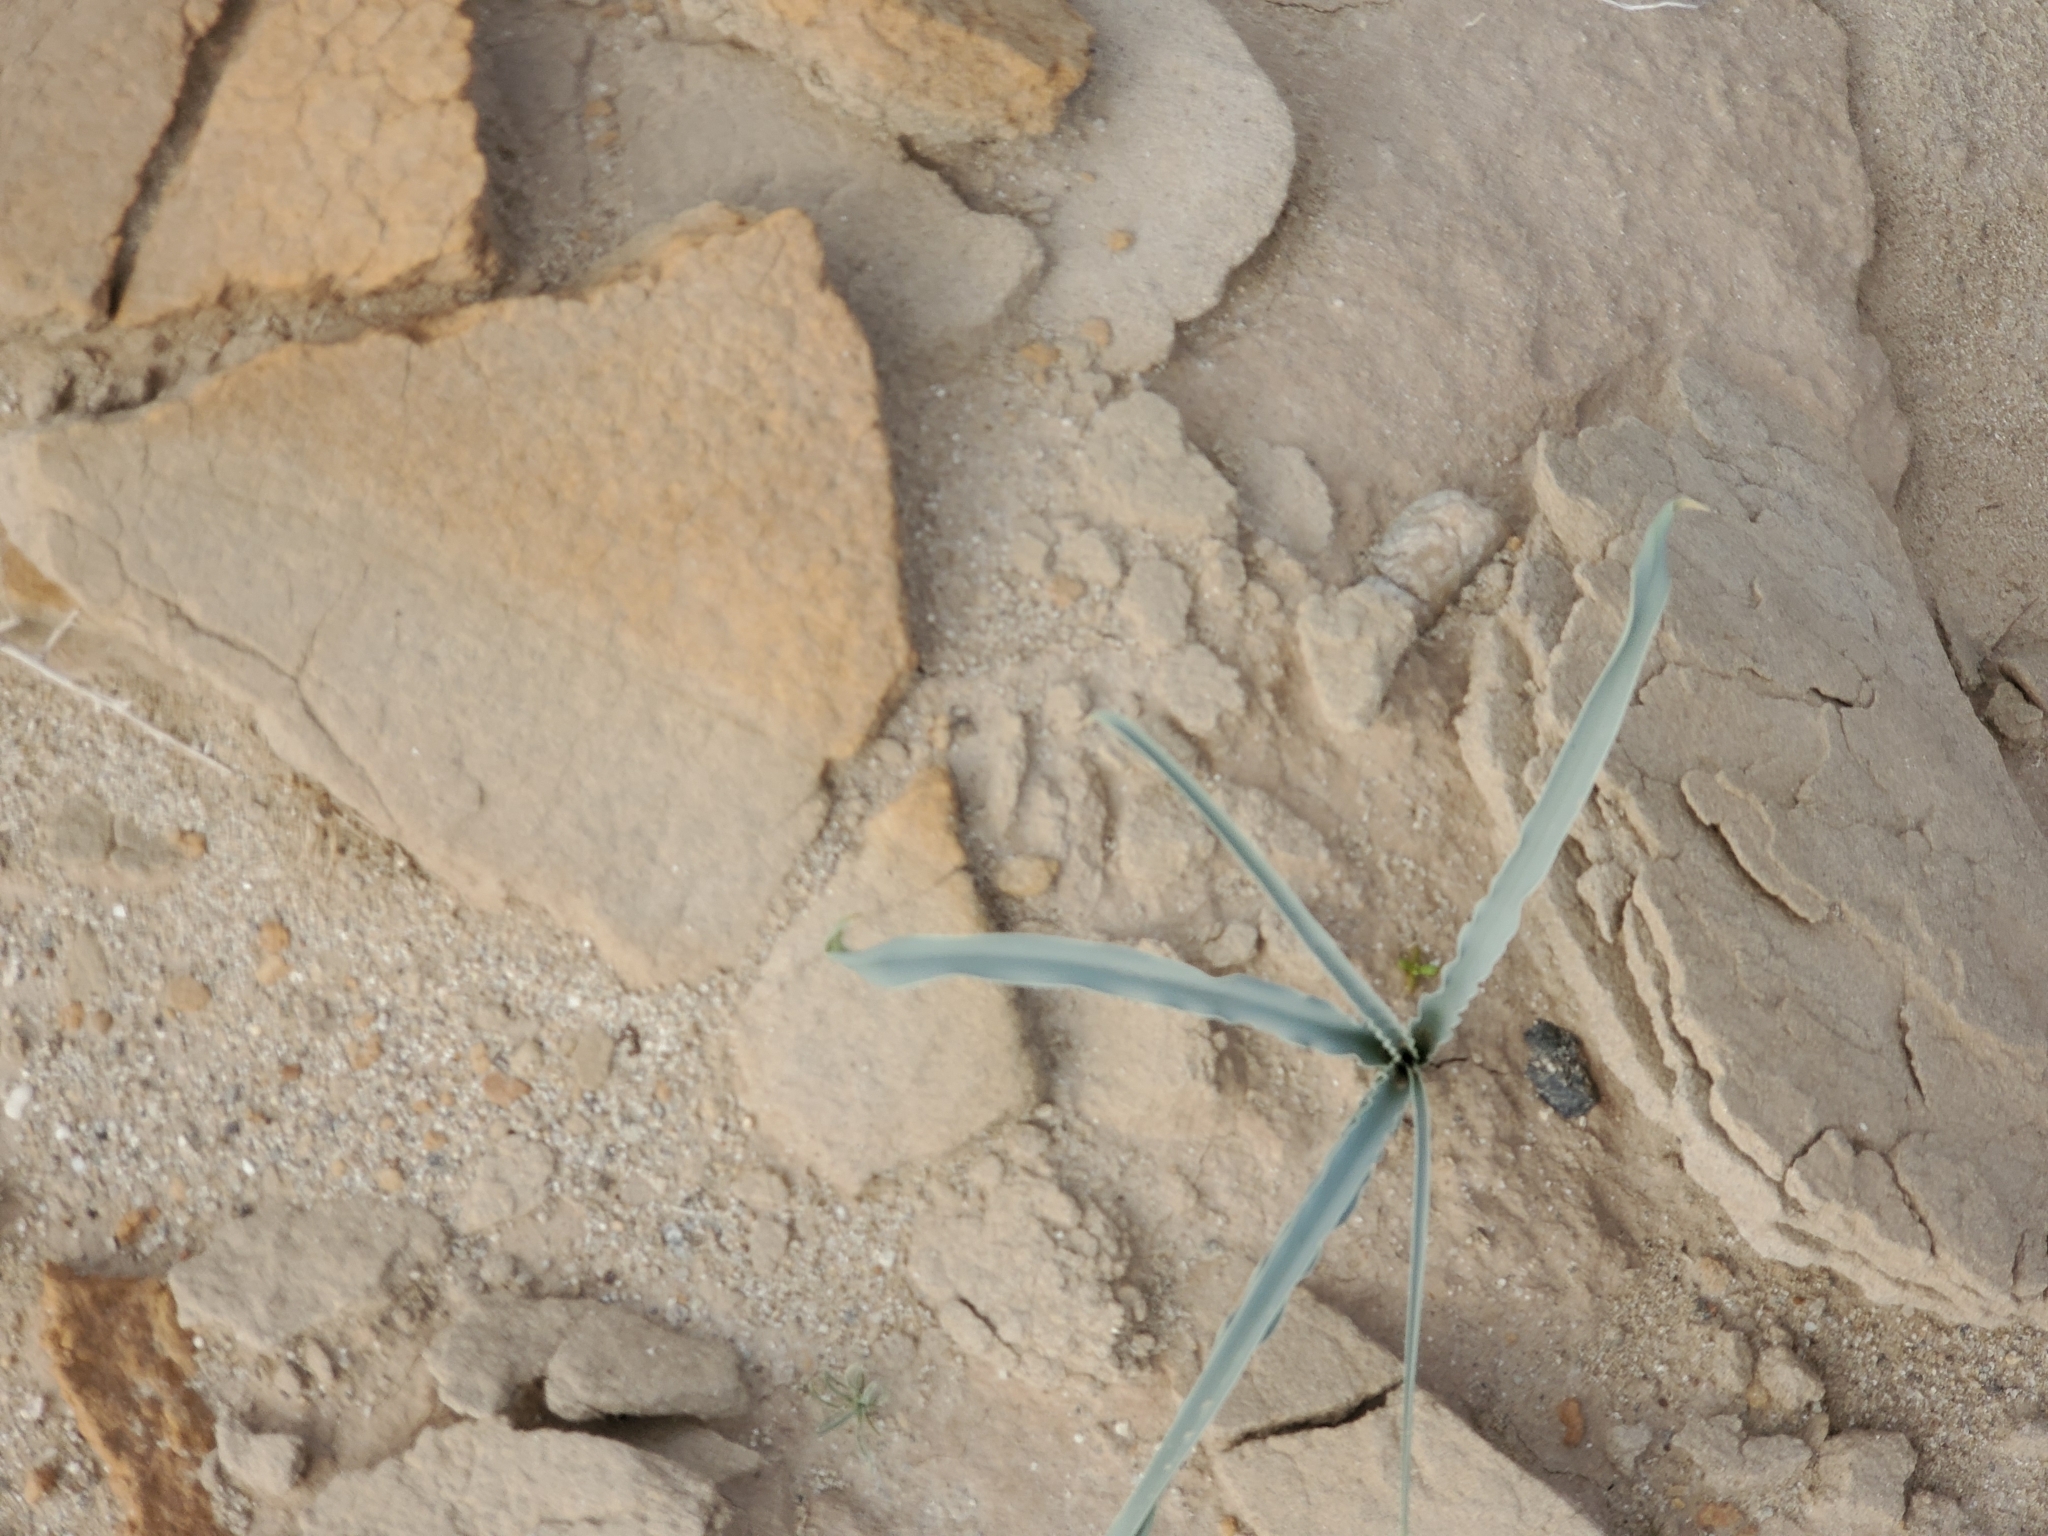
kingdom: Plantae
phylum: Tracheophyta
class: Liliopsida
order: Asparagales
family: Asparagaceae
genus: Hesperocallis
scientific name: Hesperocallis undulata
